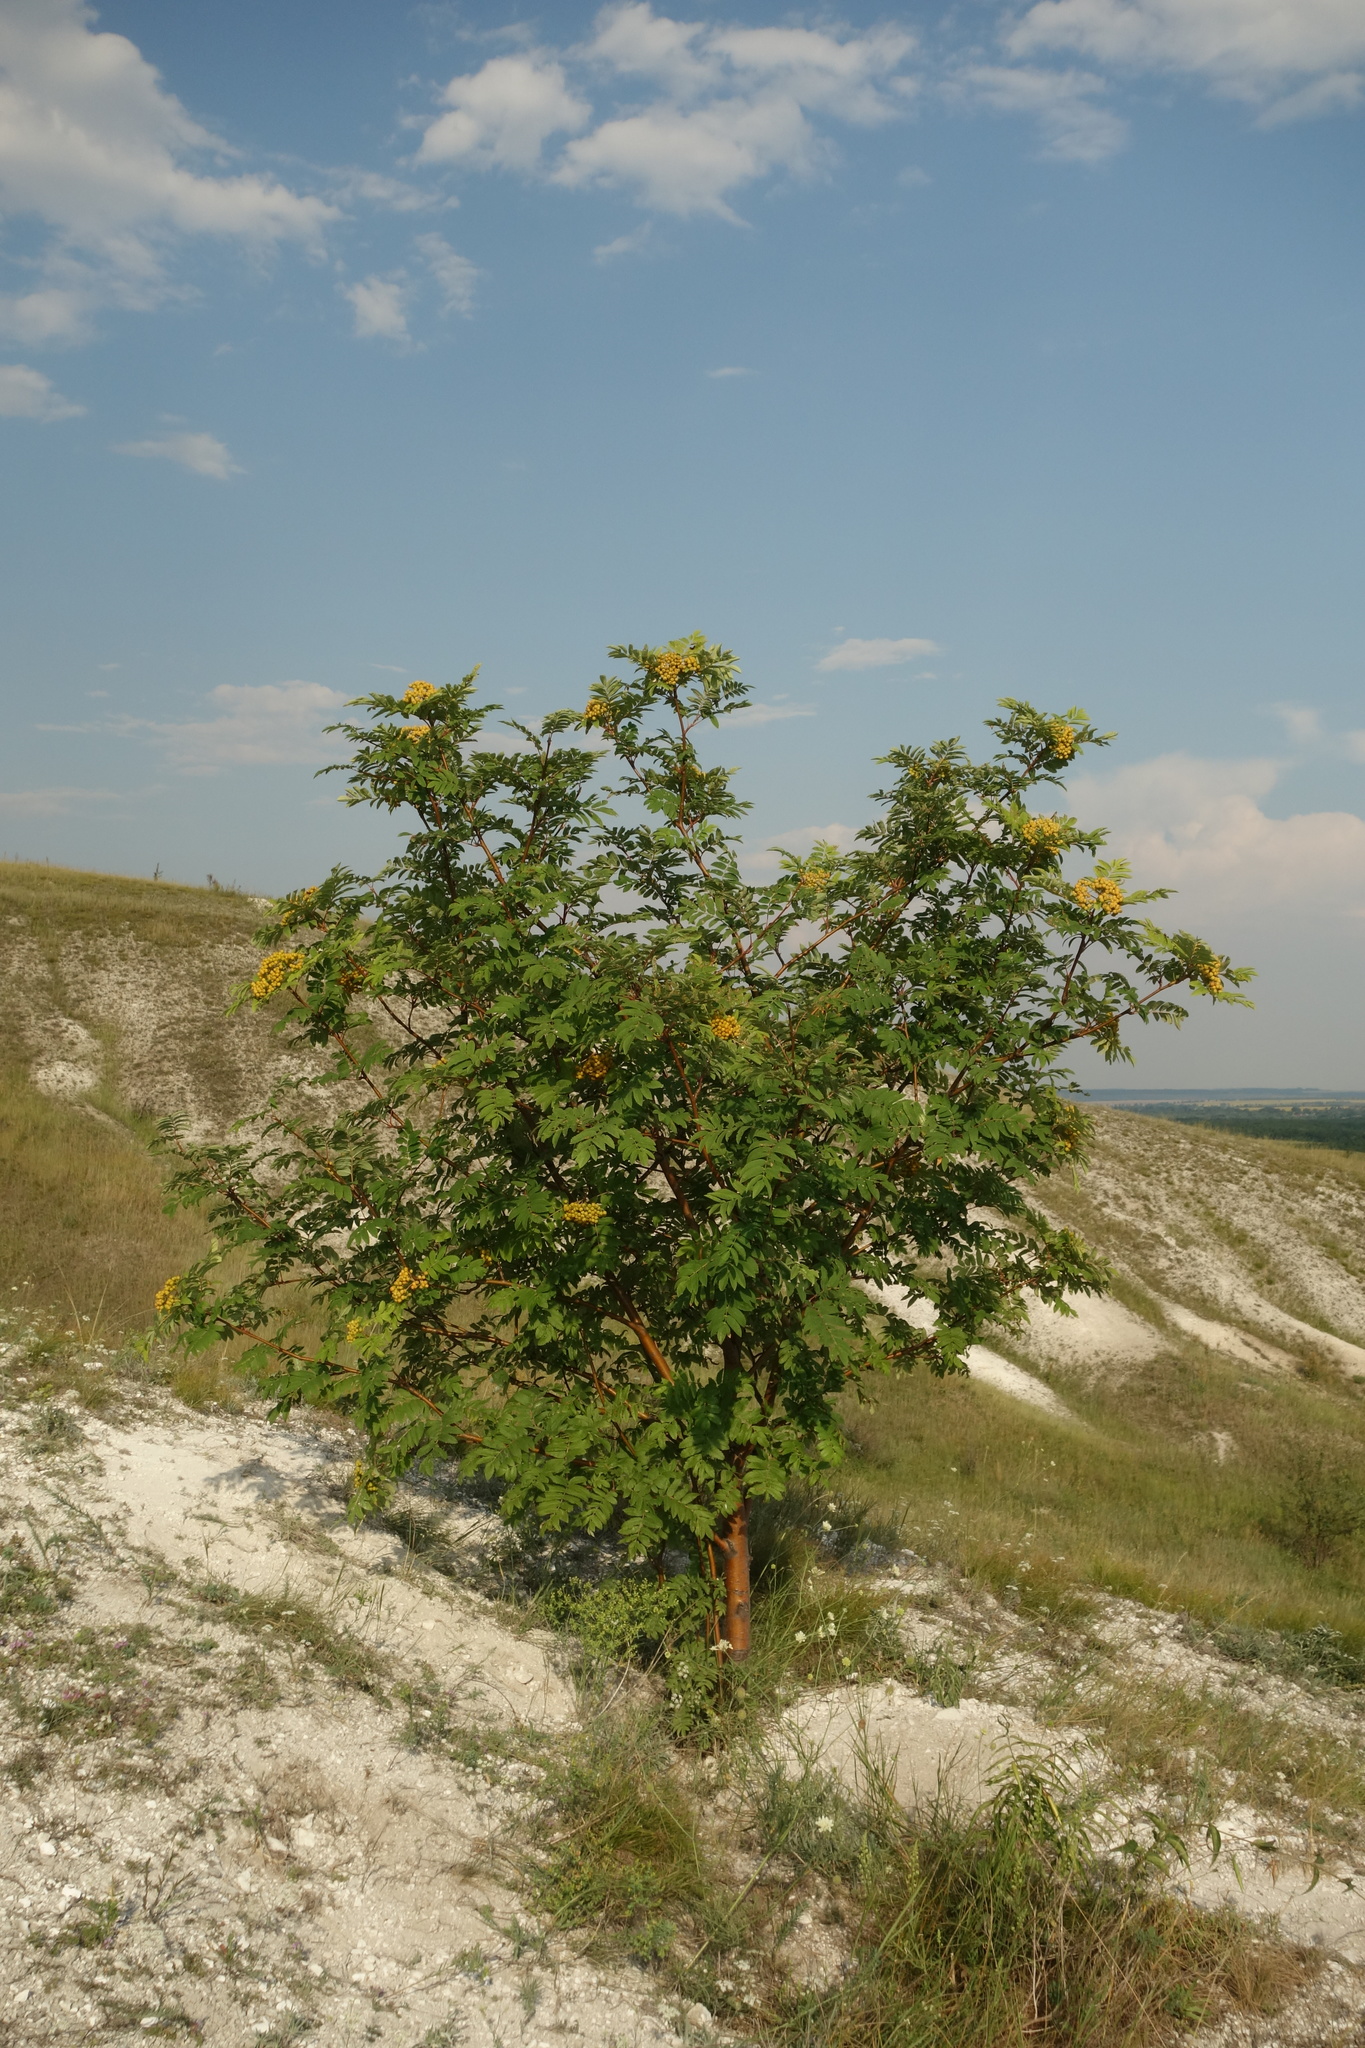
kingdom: Plantae
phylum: Tracheophyta
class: Magnoliopsida
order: Rosales
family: Rosaceae
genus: Sorbus
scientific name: Sorbus aucuparia
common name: Rowan
